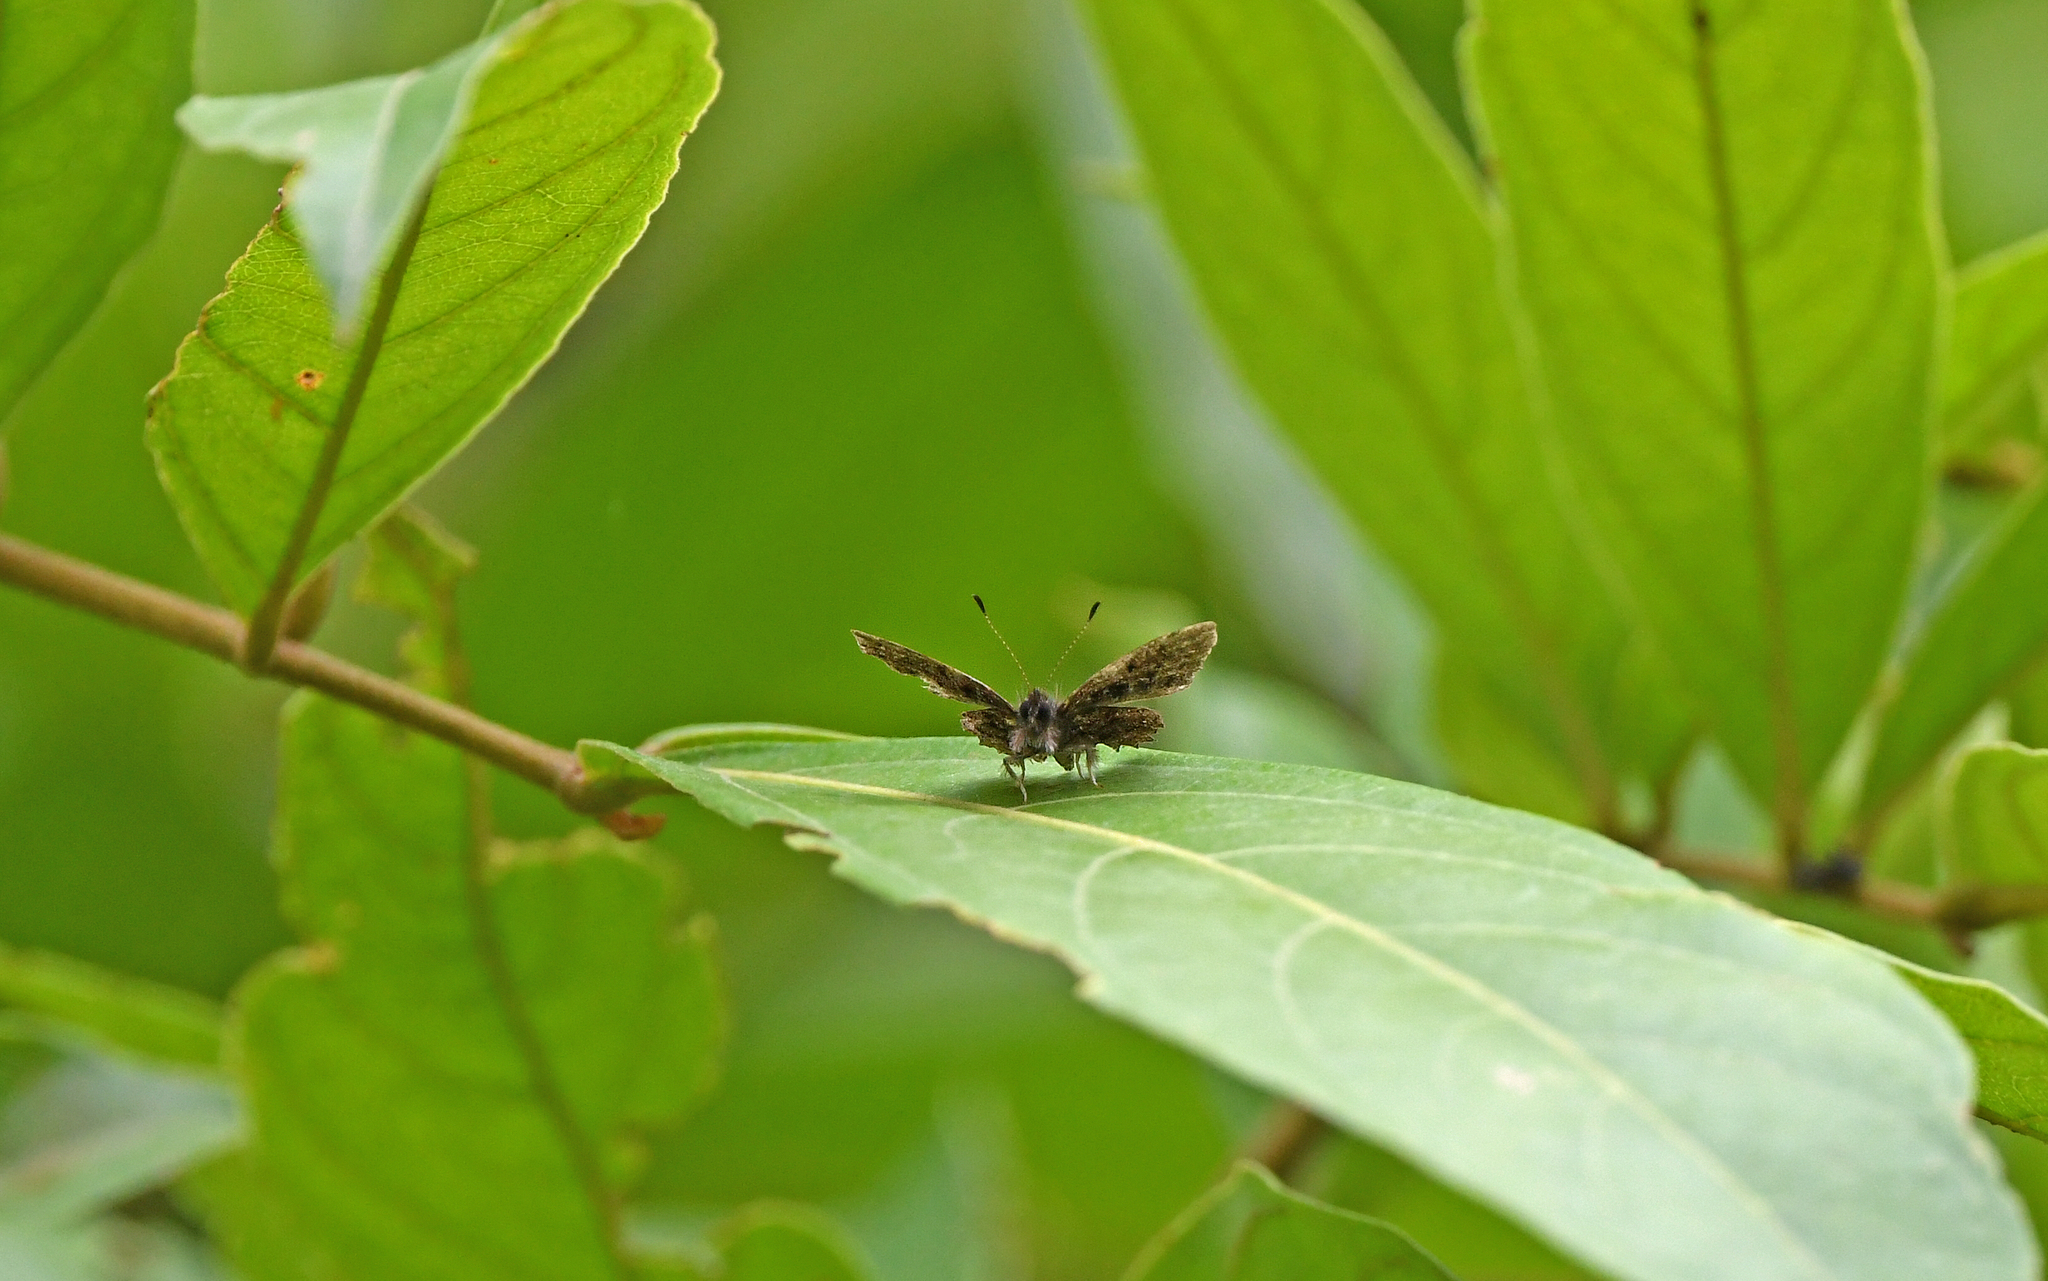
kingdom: Animalia
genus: Charis
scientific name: Charis
